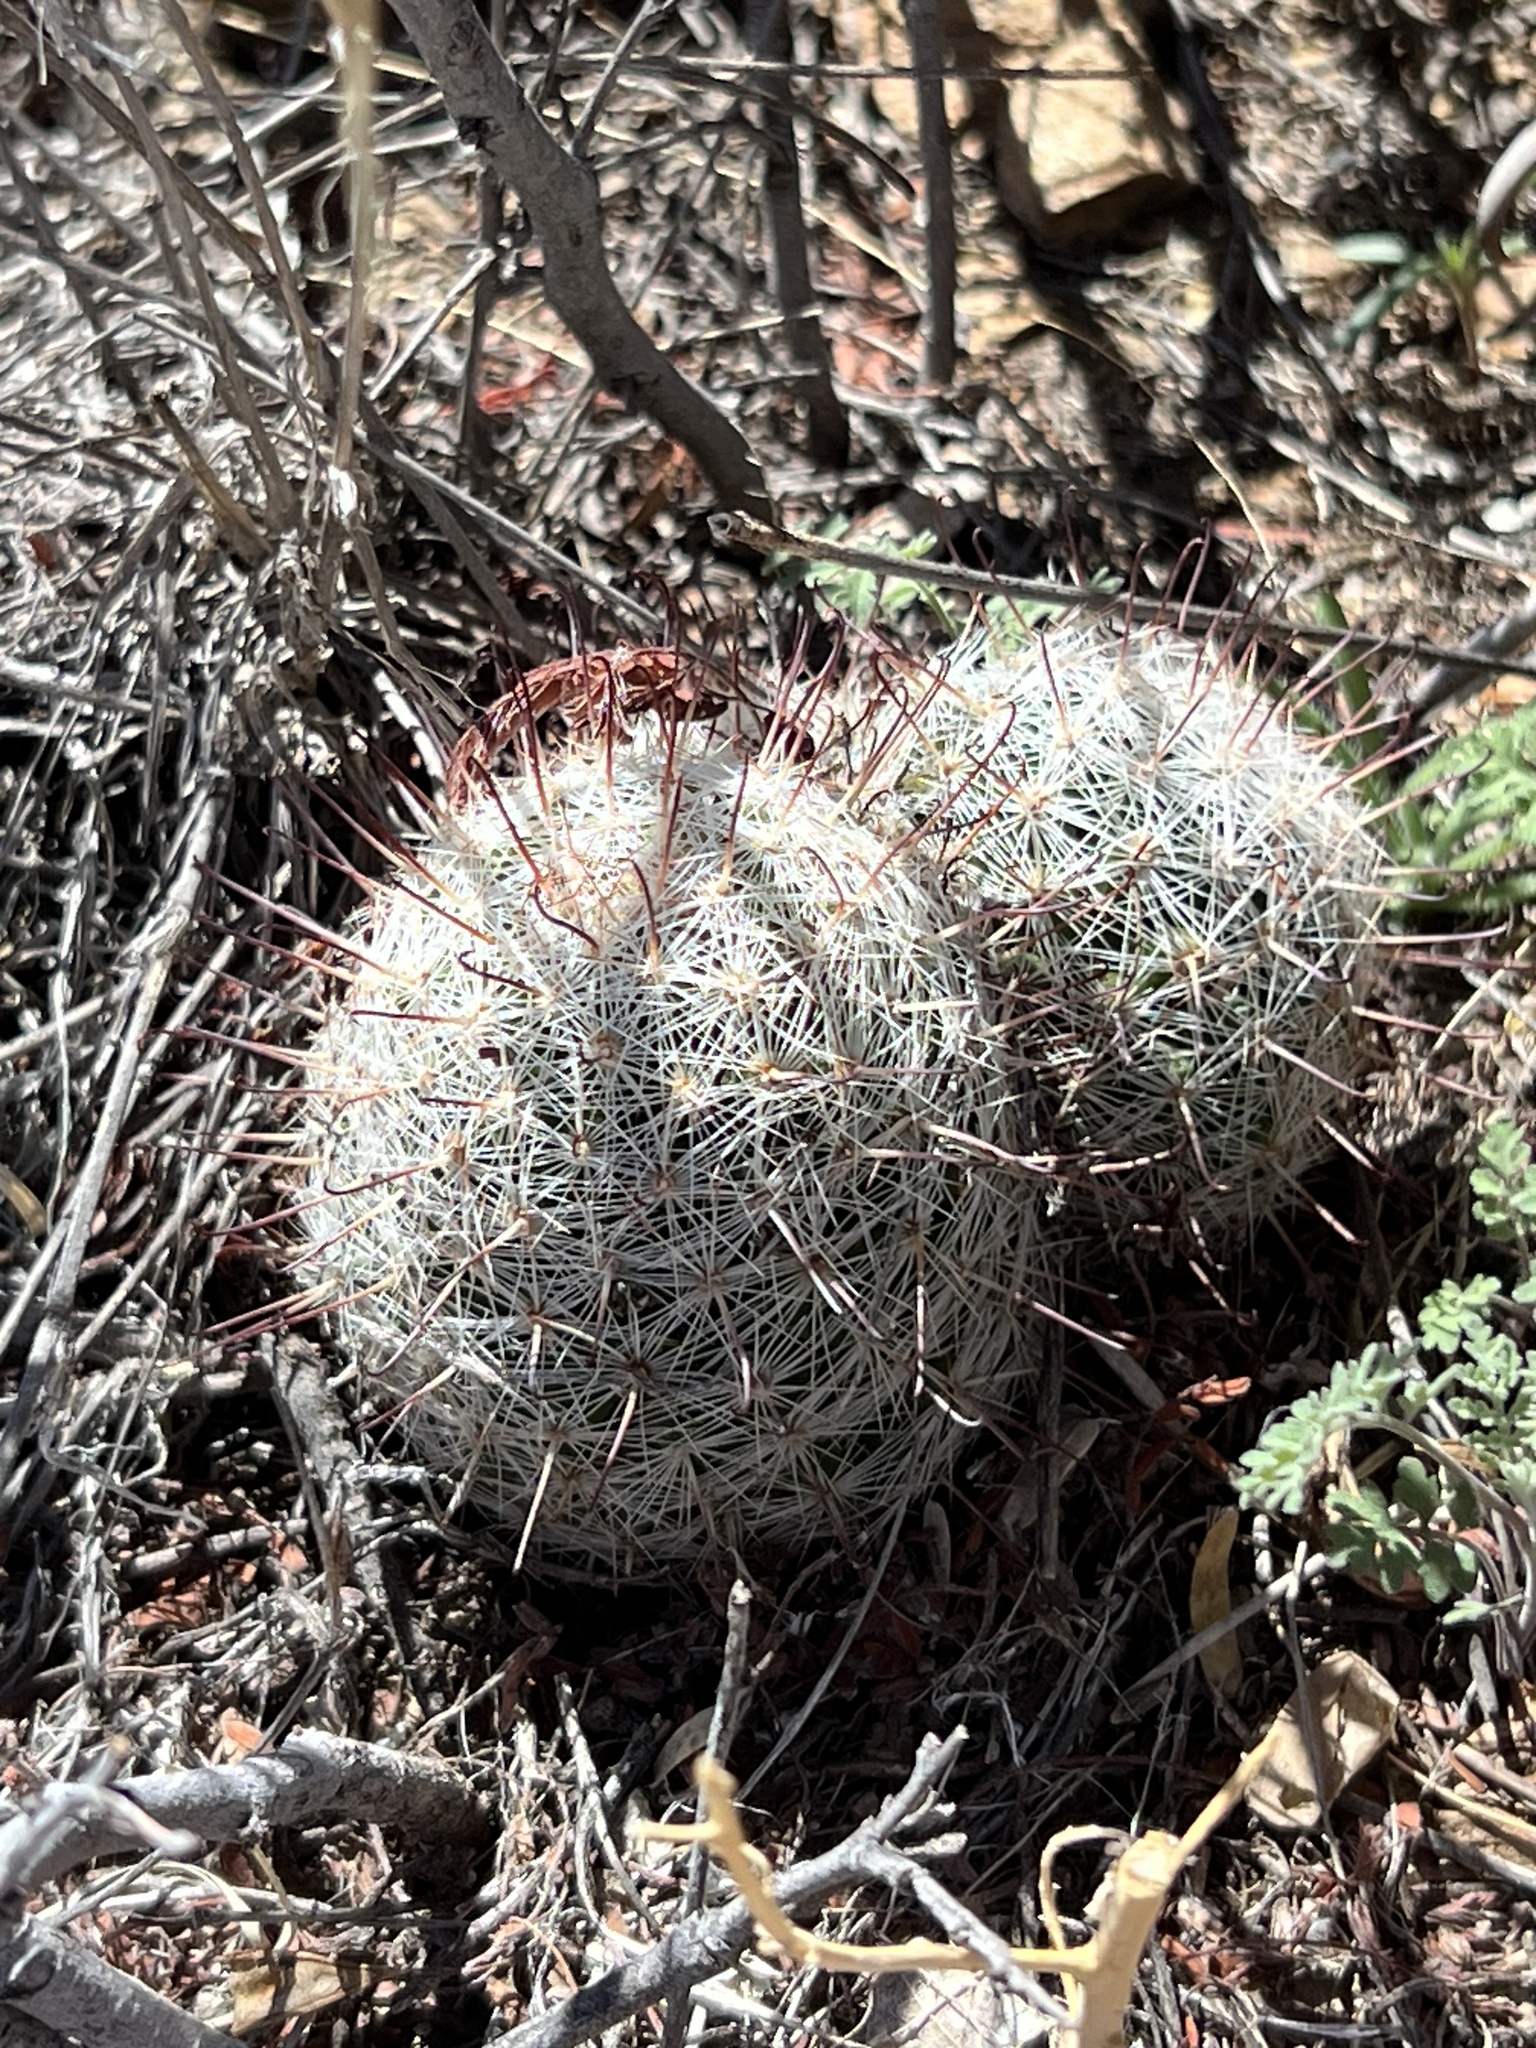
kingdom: Plantae
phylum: Tracheophyta
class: Magnoliopsida
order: Caryophyllales
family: Cactaceae
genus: Cochemiea
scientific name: Cochemiea grahamii
